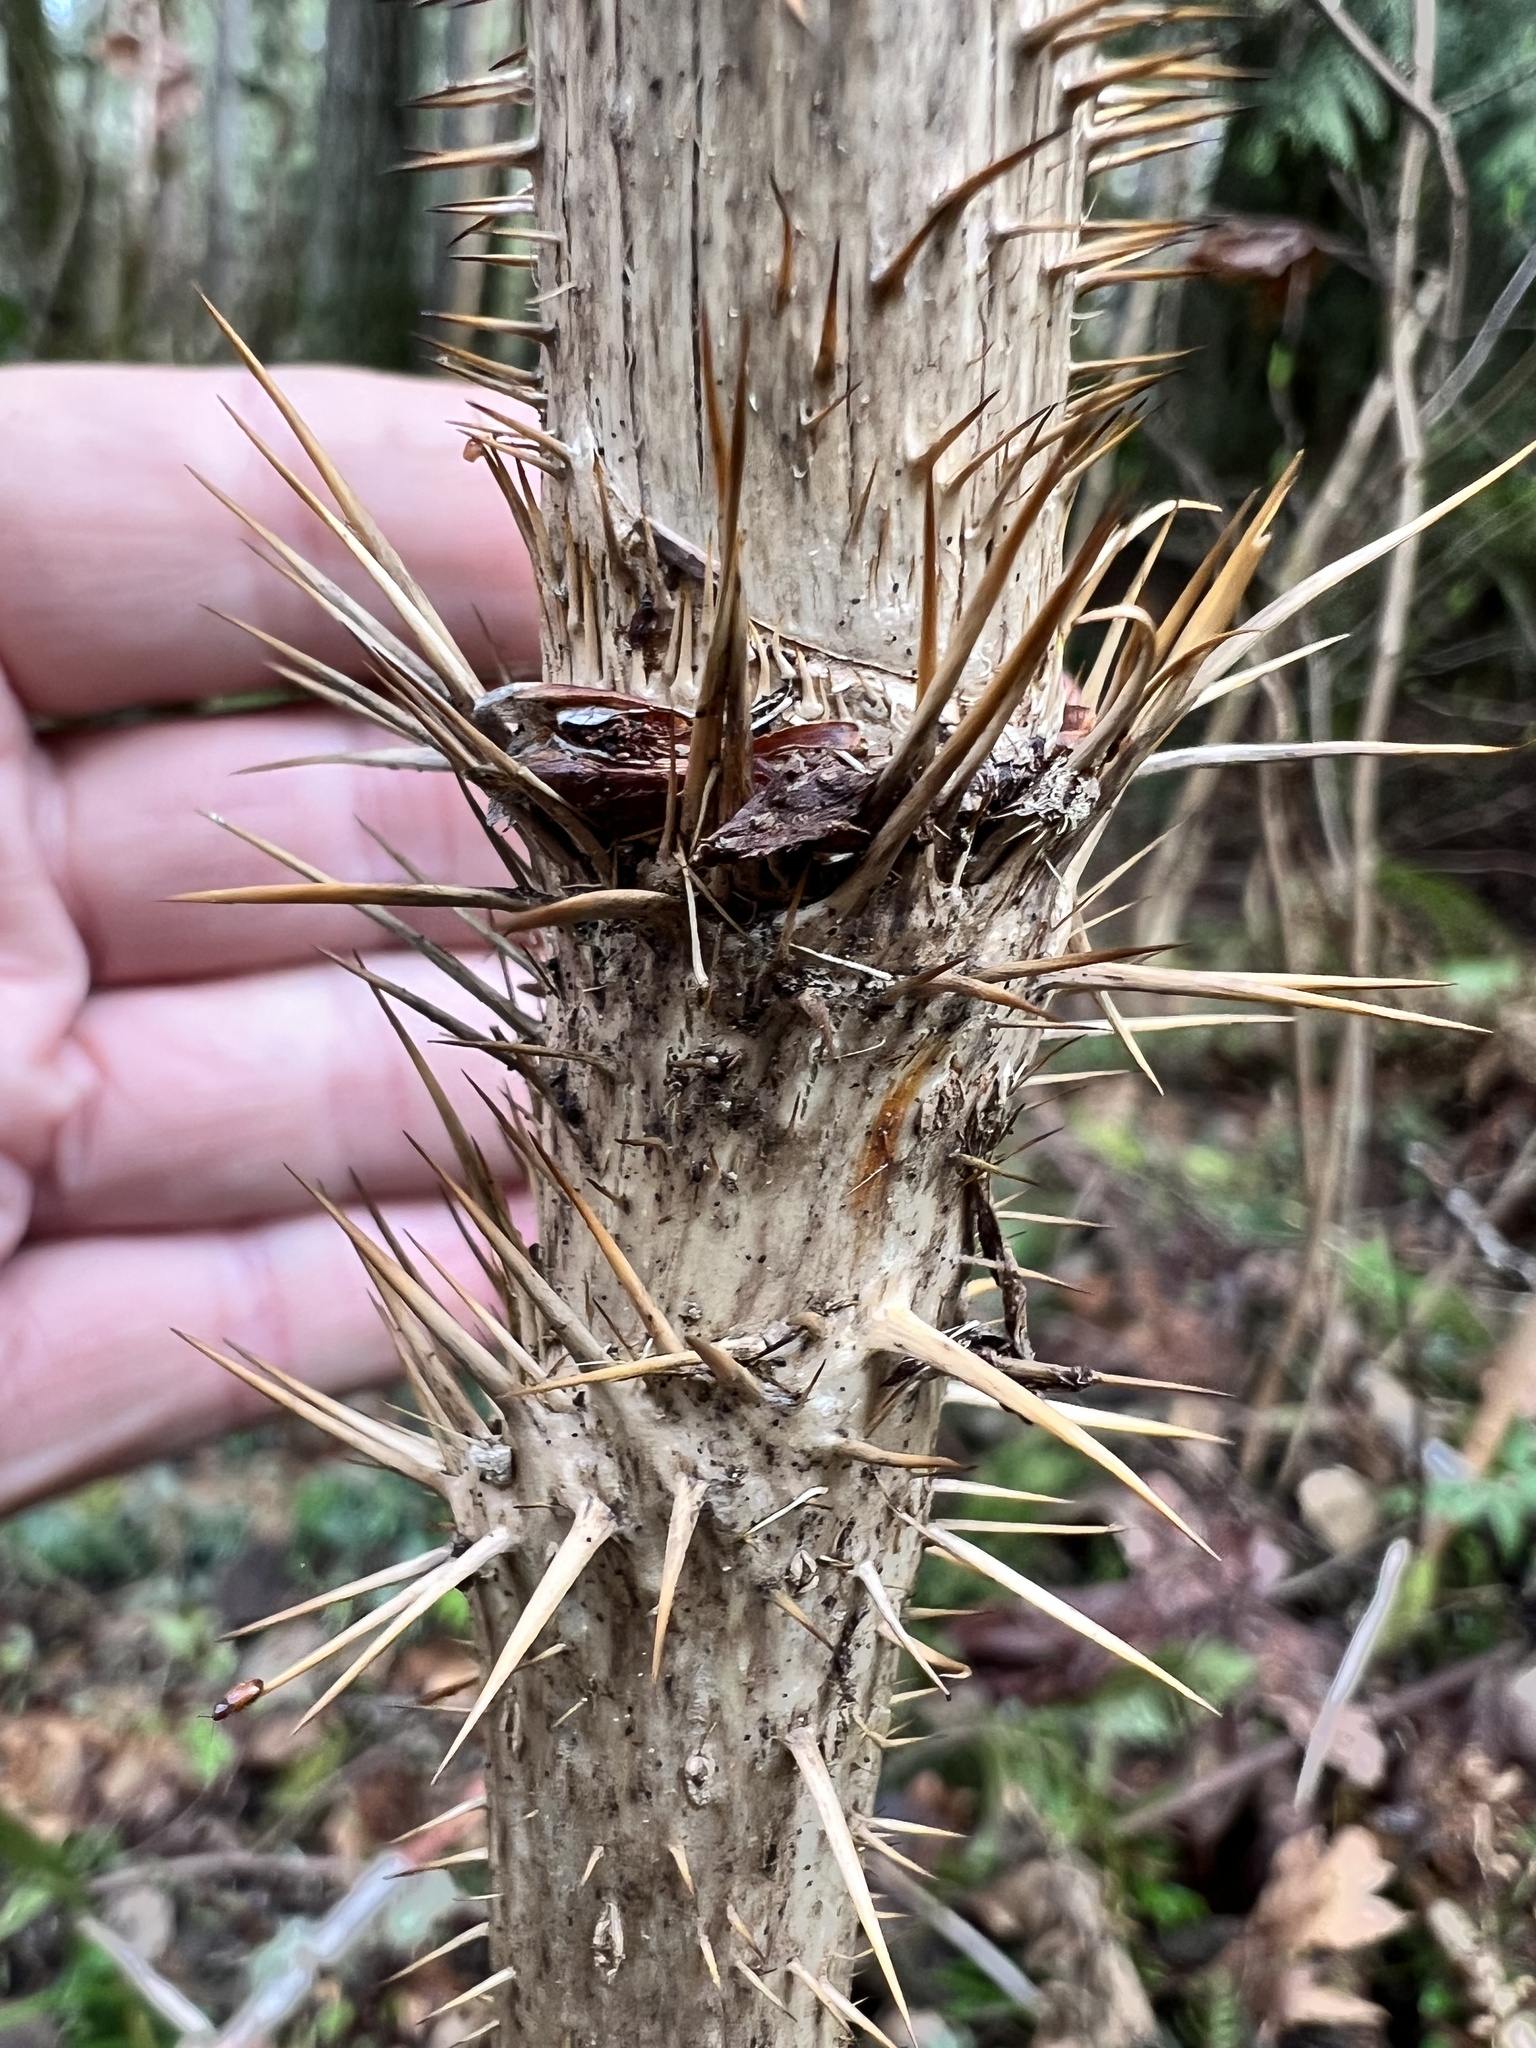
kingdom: Plantae
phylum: Tracheophyta
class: Magnoliopsida
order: Apiales
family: Araliaceae
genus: Oplopanax
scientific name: Oplopanax horridus
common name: Devil's walking-stick
